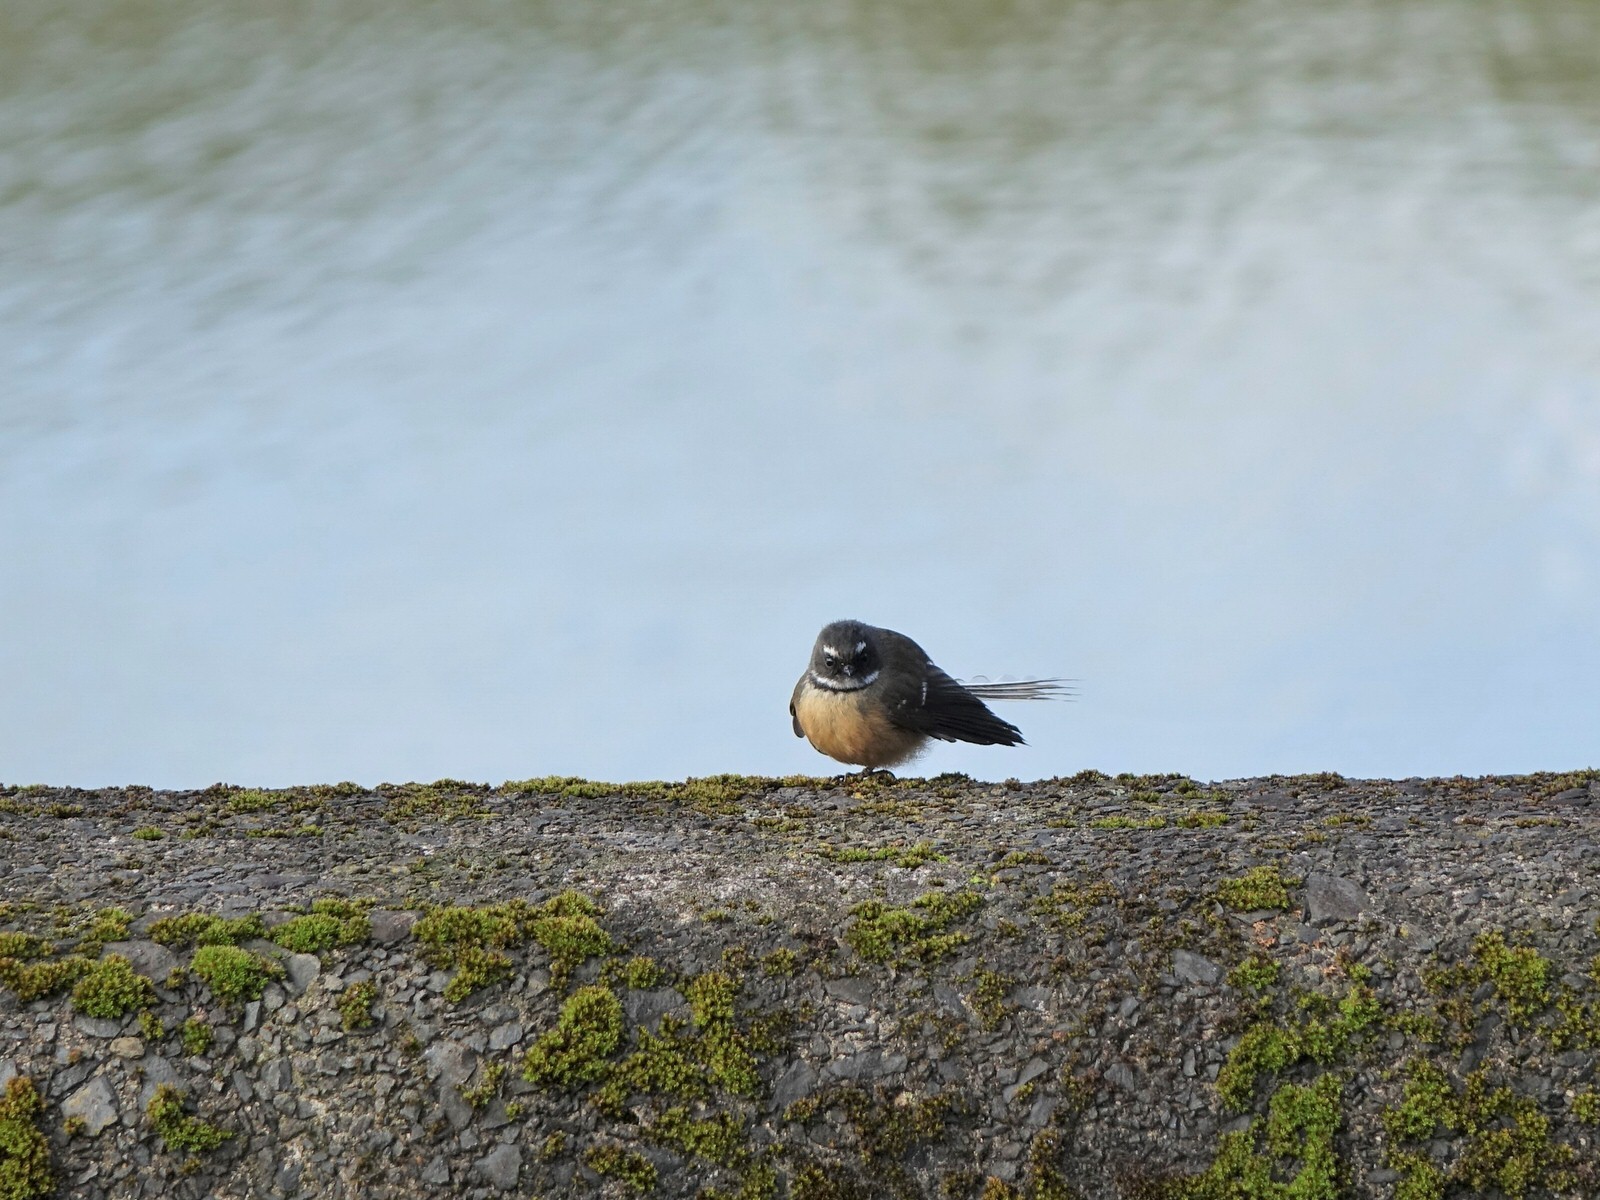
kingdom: Animalia
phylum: Chordata
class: Aves
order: Passeriformes
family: Rhipiduridae
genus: Rhipidura
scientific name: Rhipidura fuliginosa
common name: New zealand fantail
